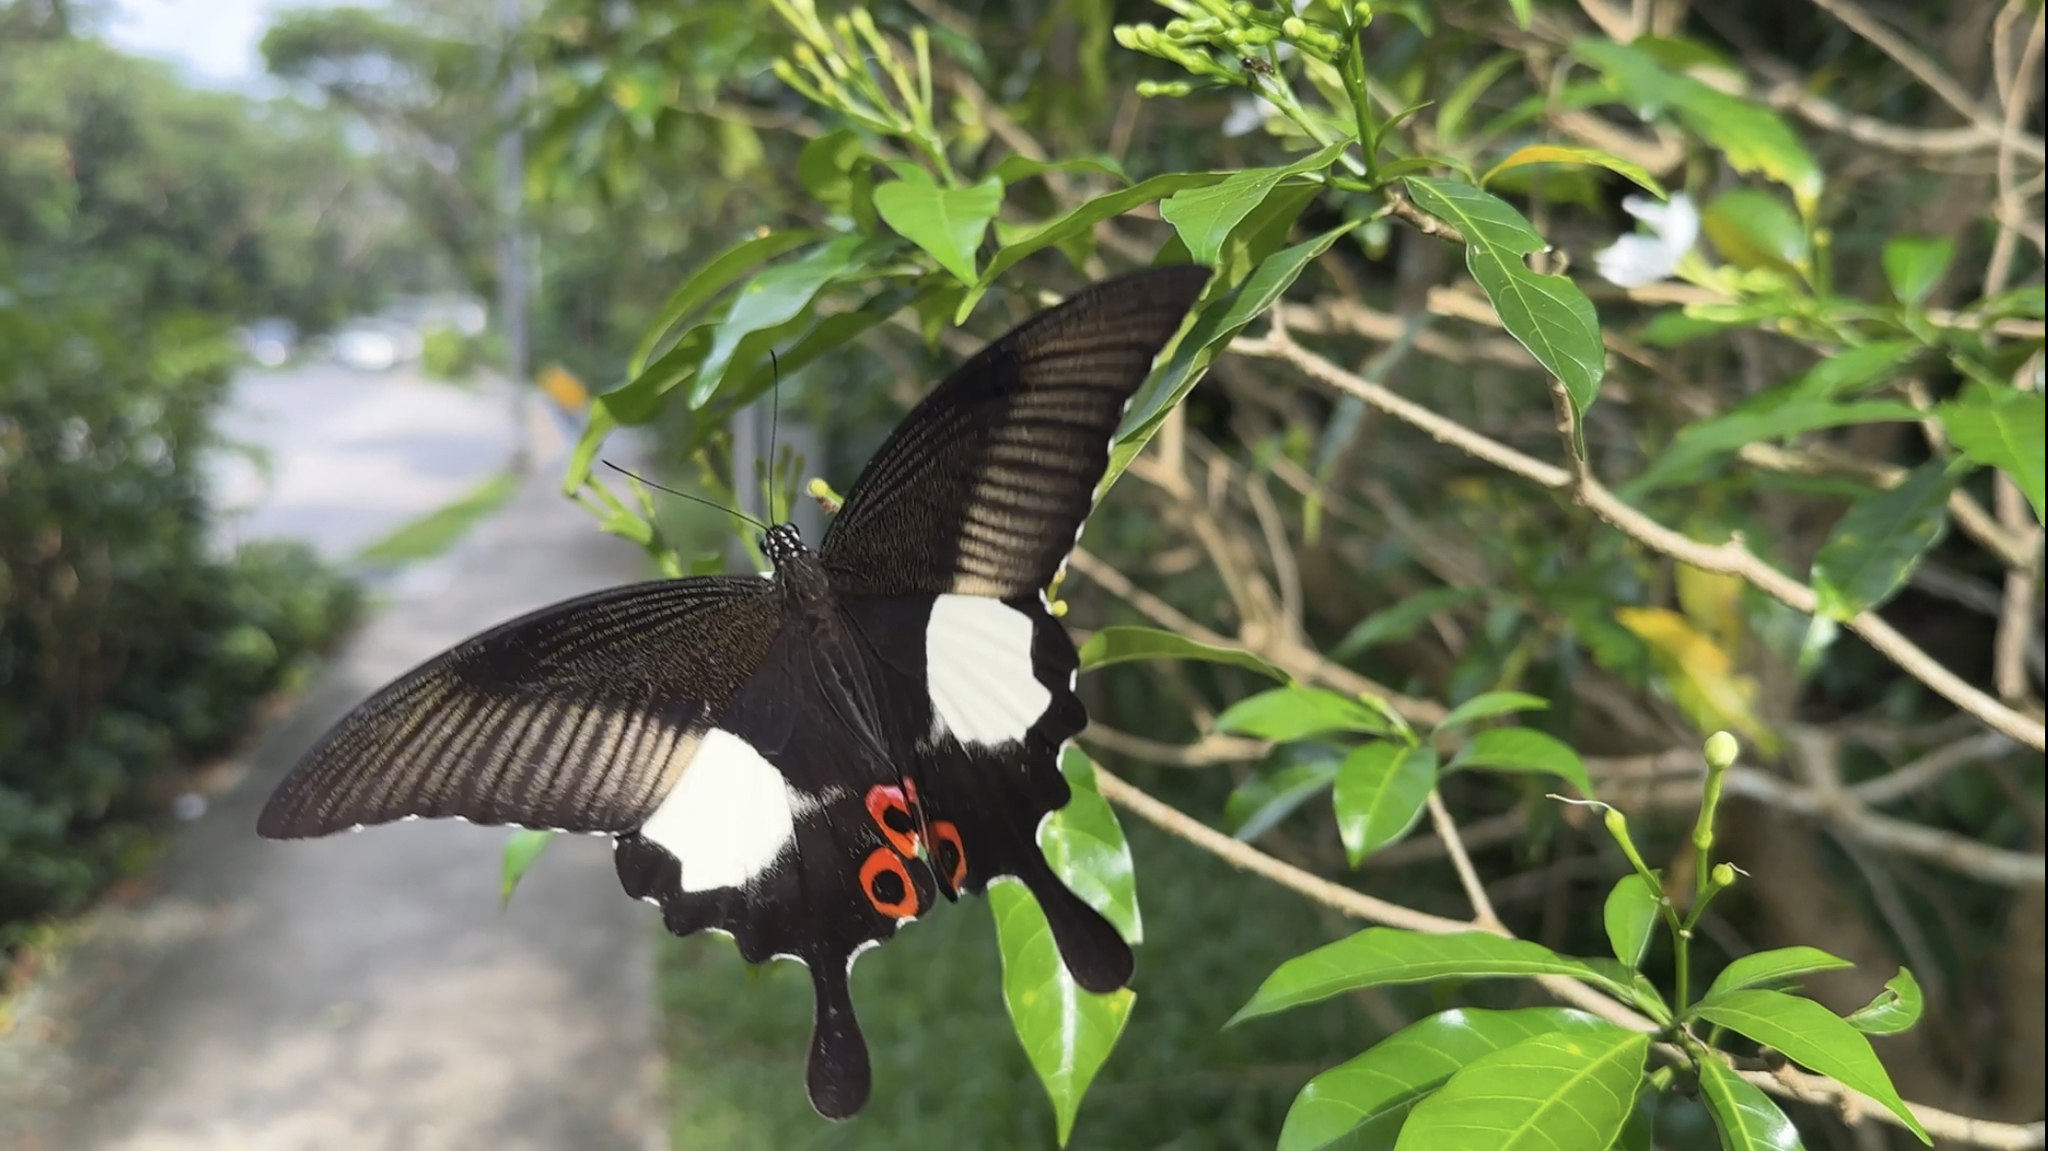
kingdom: Animalia
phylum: Arthropoda
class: Insecta
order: Lepidoptera
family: Papilionidae
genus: Papilio
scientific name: Papilio iswara
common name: Great helen swallowtail
